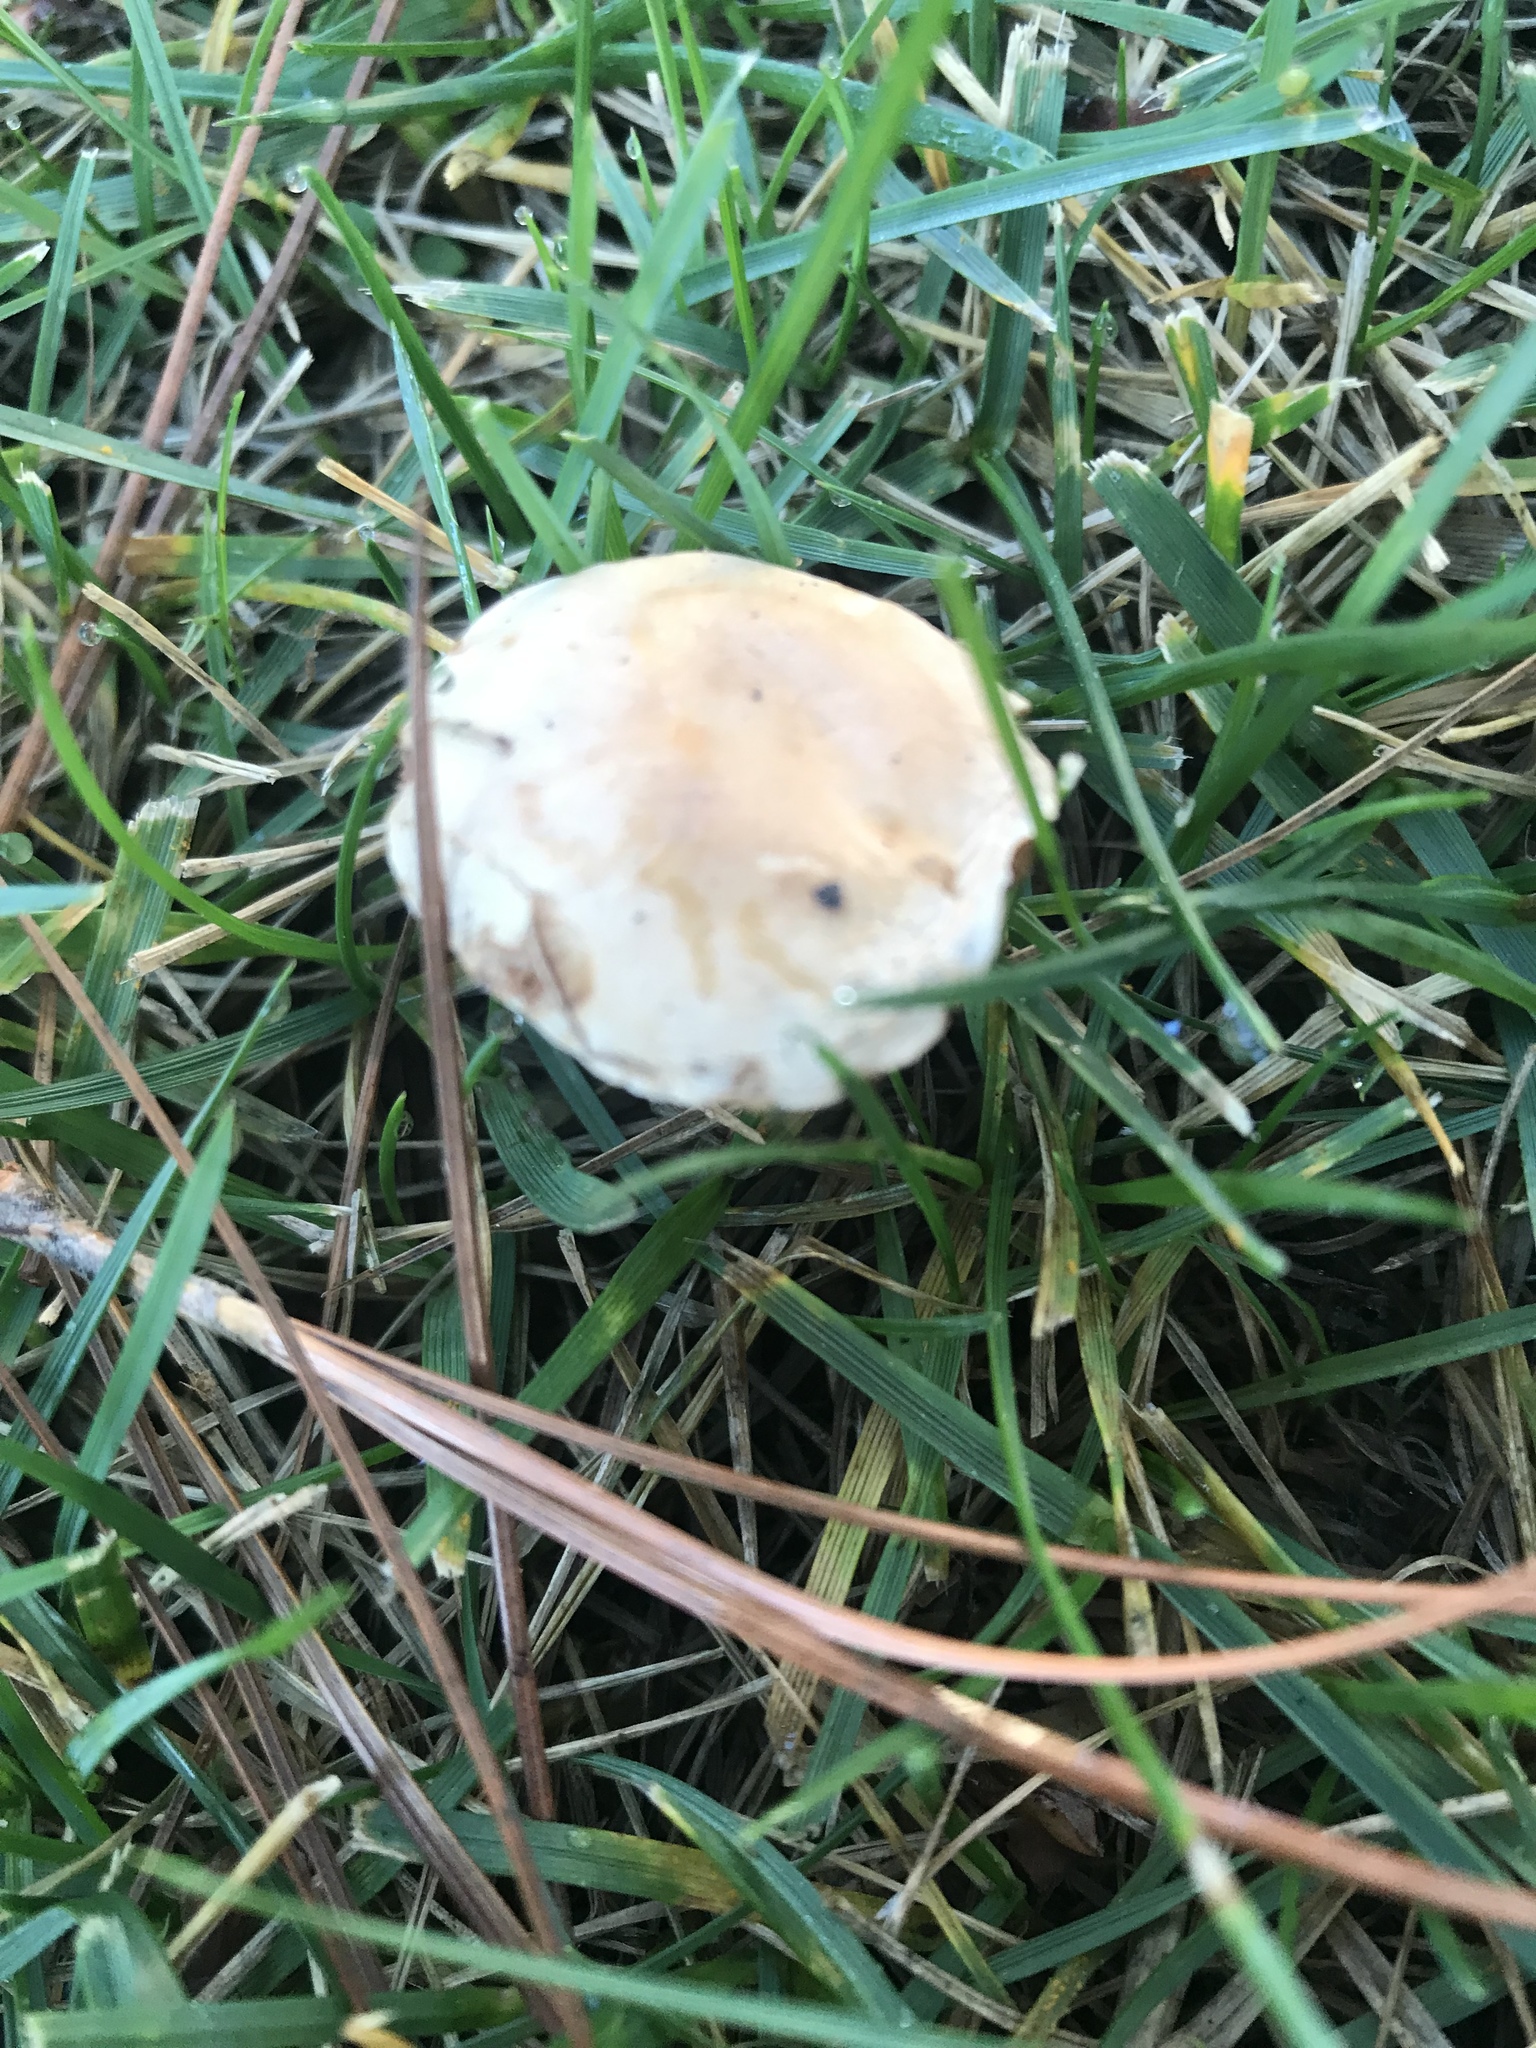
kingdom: Fungi
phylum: Basidiomycota
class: Agaricomycetes
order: Agaricales
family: Hymenogastraceae
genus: Hebeloma
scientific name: Hebeloma crustuliniforme
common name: Poison pie
